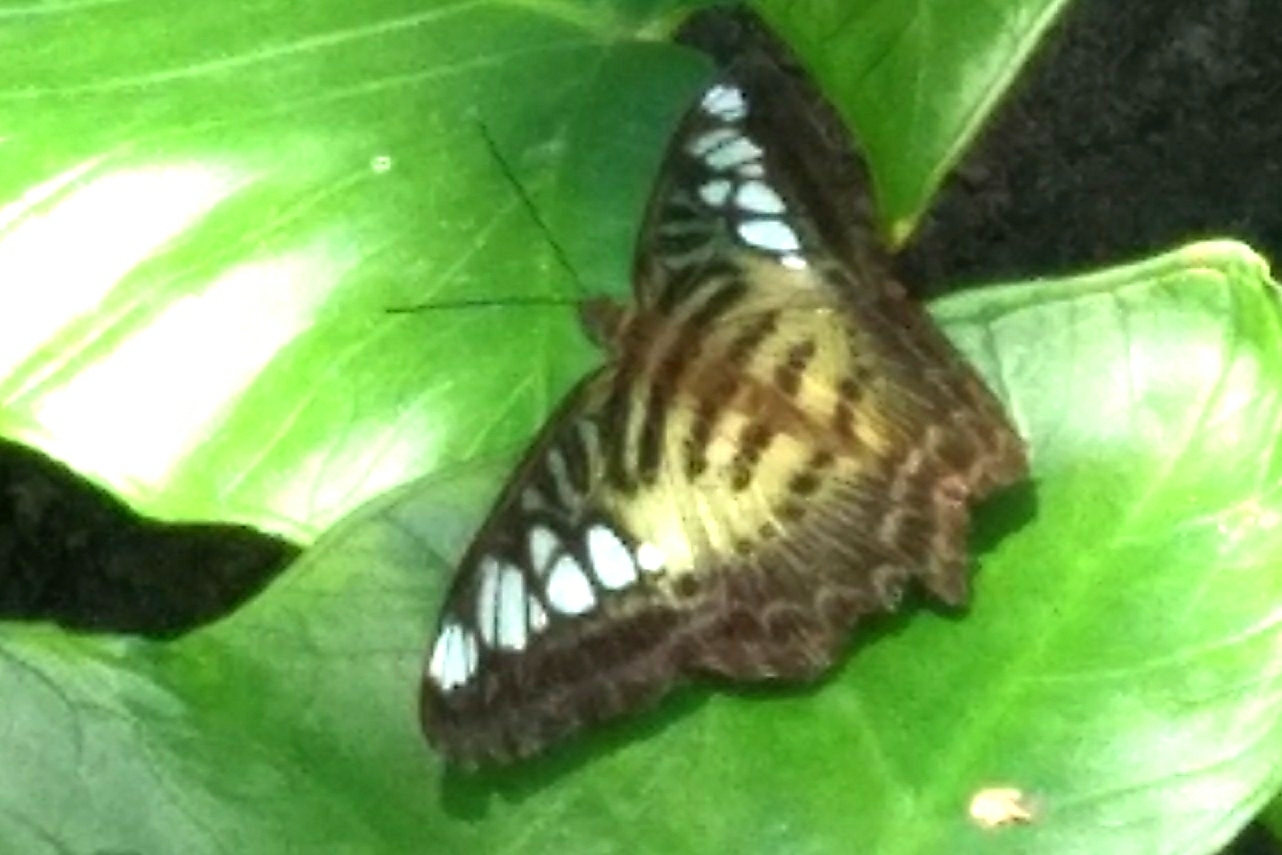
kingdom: Animalia
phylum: Arthropoda
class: Insecta
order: Lepidoptera
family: Nymphalidae
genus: Kallima
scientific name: Kallima sylvia
